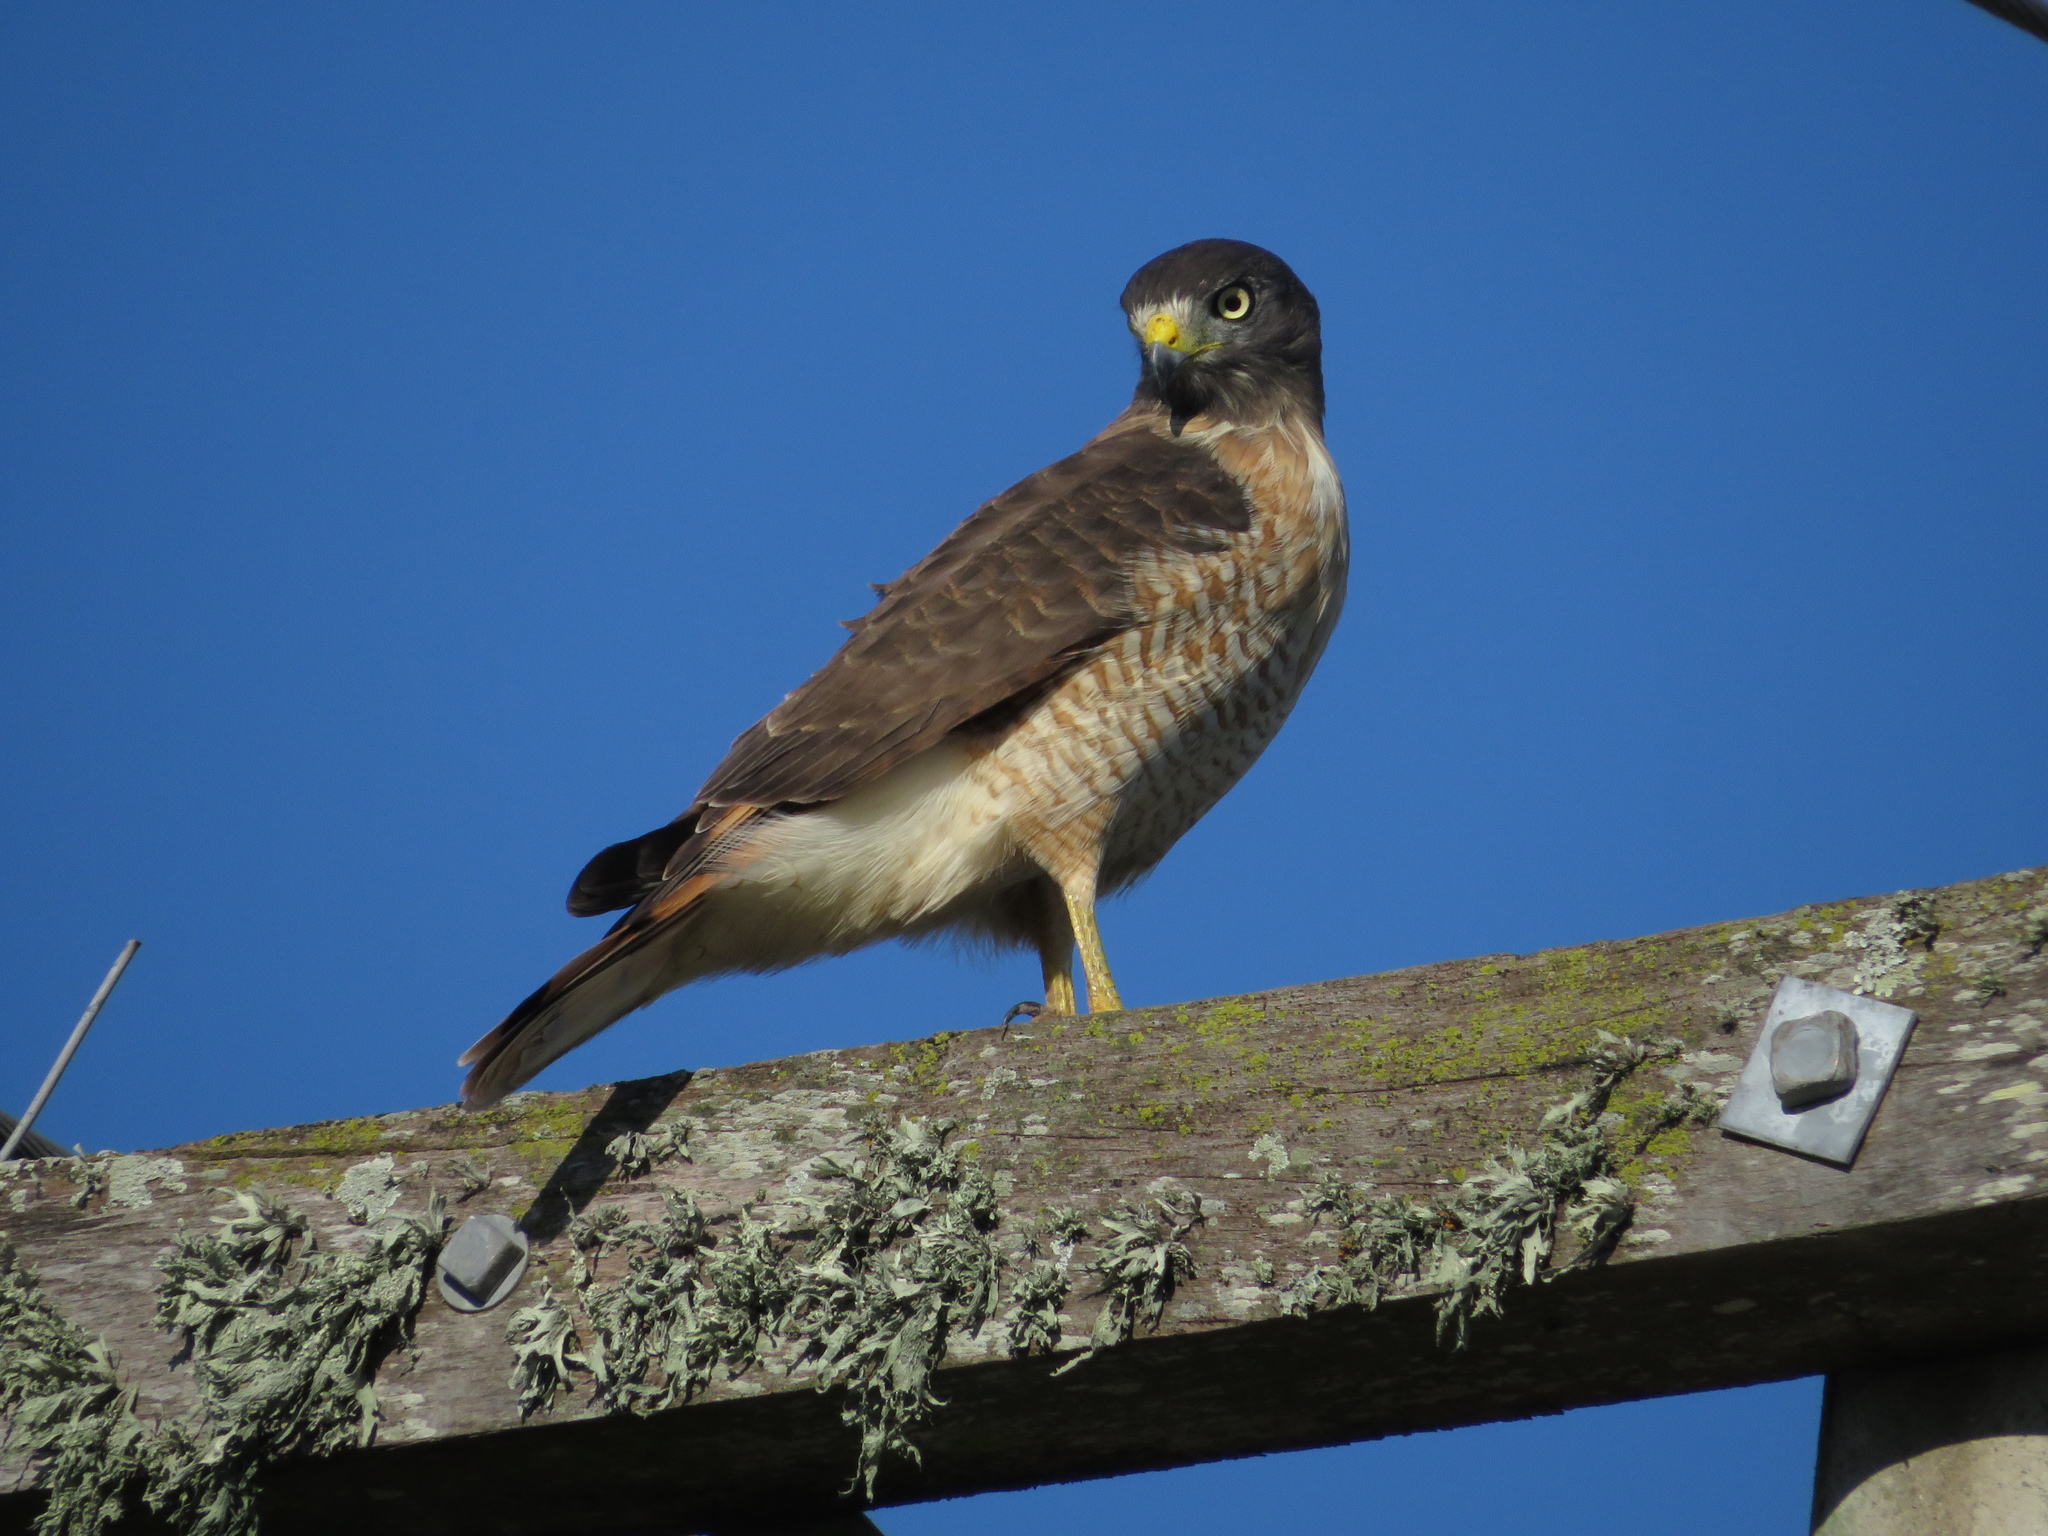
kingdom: Animalia
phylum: Chordata
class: Aves
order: Accipitriformes
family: Accipitridae
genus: Rupornis
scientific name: Rupornis magnirostris
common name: Roadside hawk
